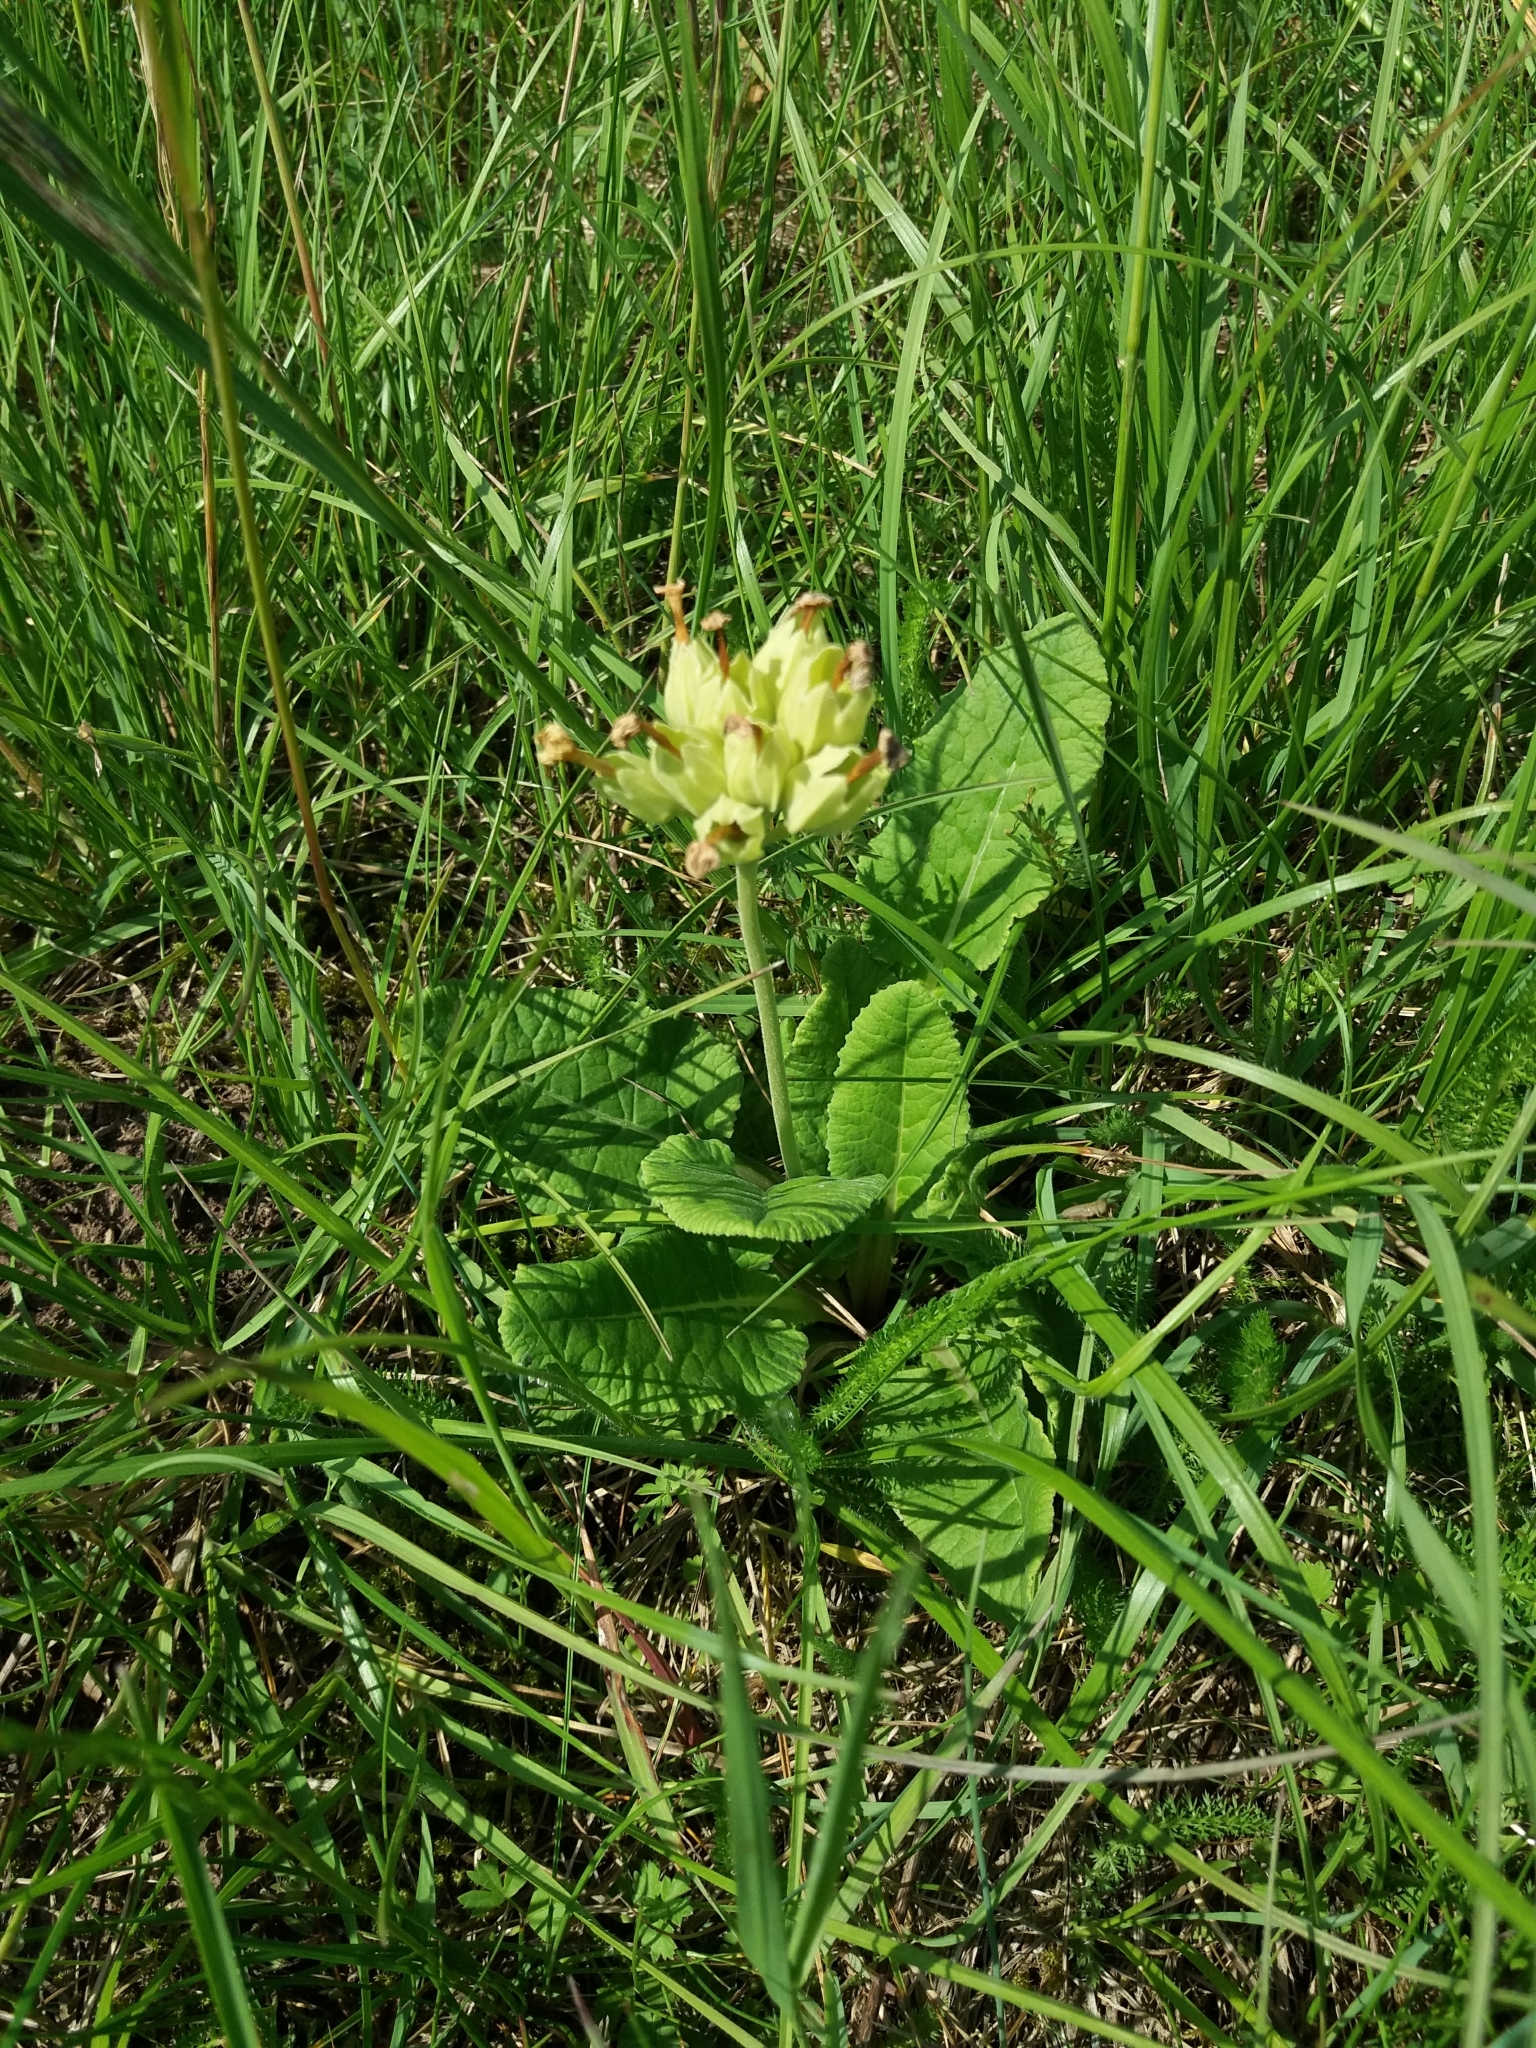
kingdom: Plantae
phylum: Tracheophyta
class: Magnoliopsida
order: Ericales
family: Primulaceae
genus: Primula
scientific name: Primula veris
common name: Cowslip
